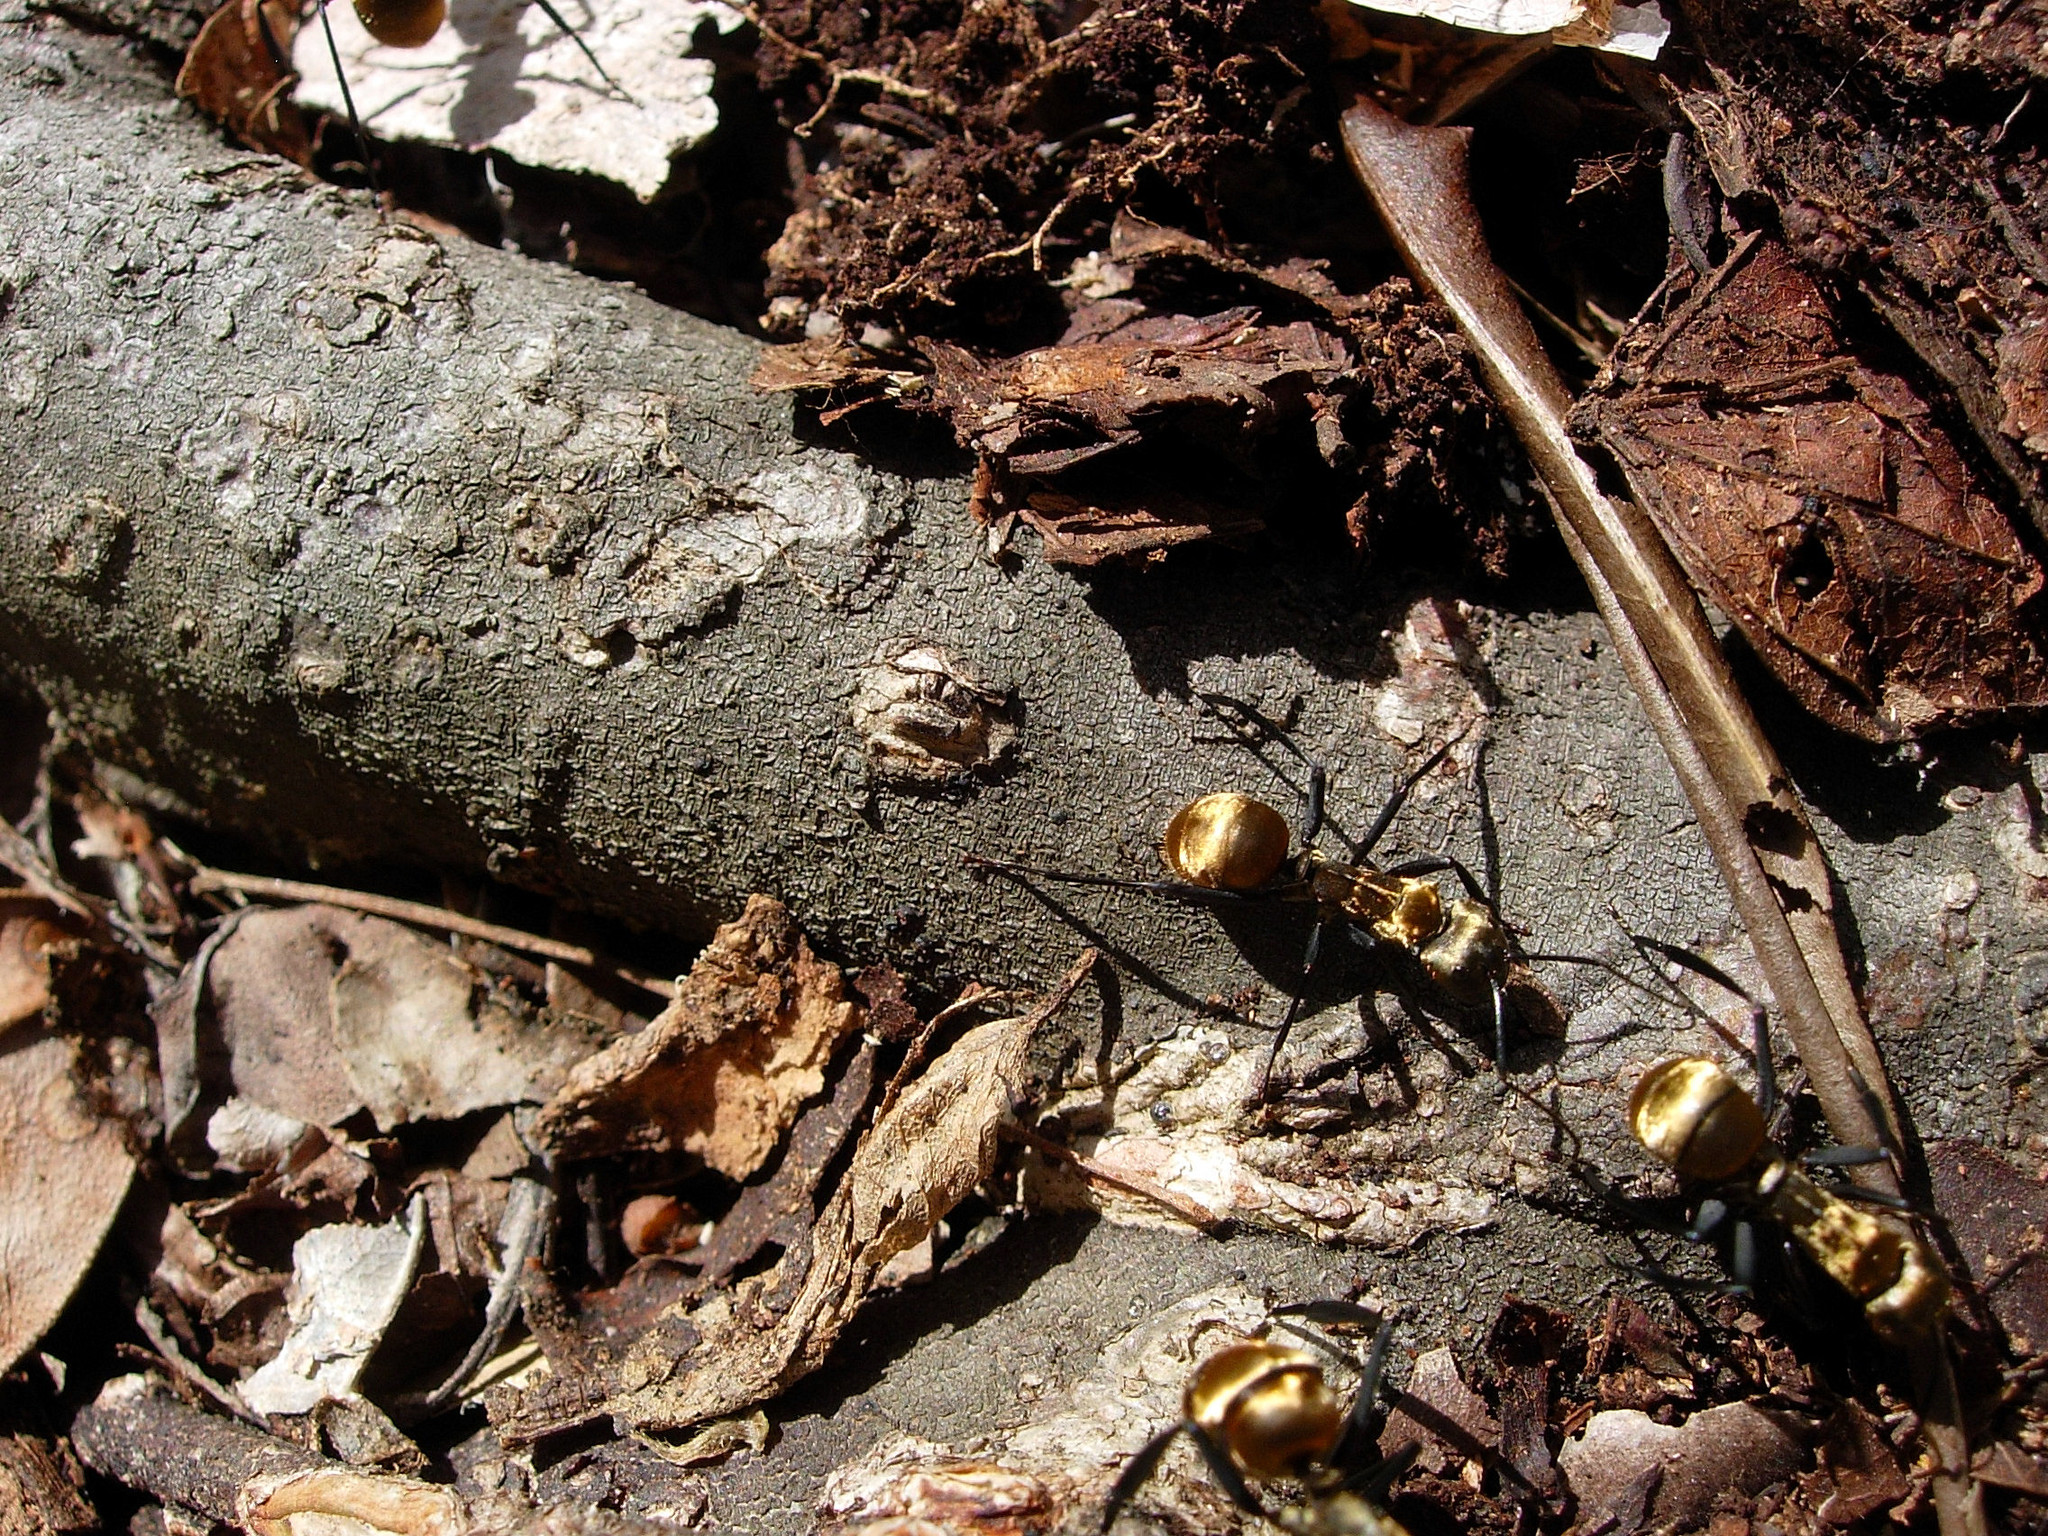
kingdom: Animalia
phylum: Arthropoda
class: Insecta
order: Hymenoptera
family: Formicidae
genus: Camponotus
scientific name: Camponotus sericeiventris
